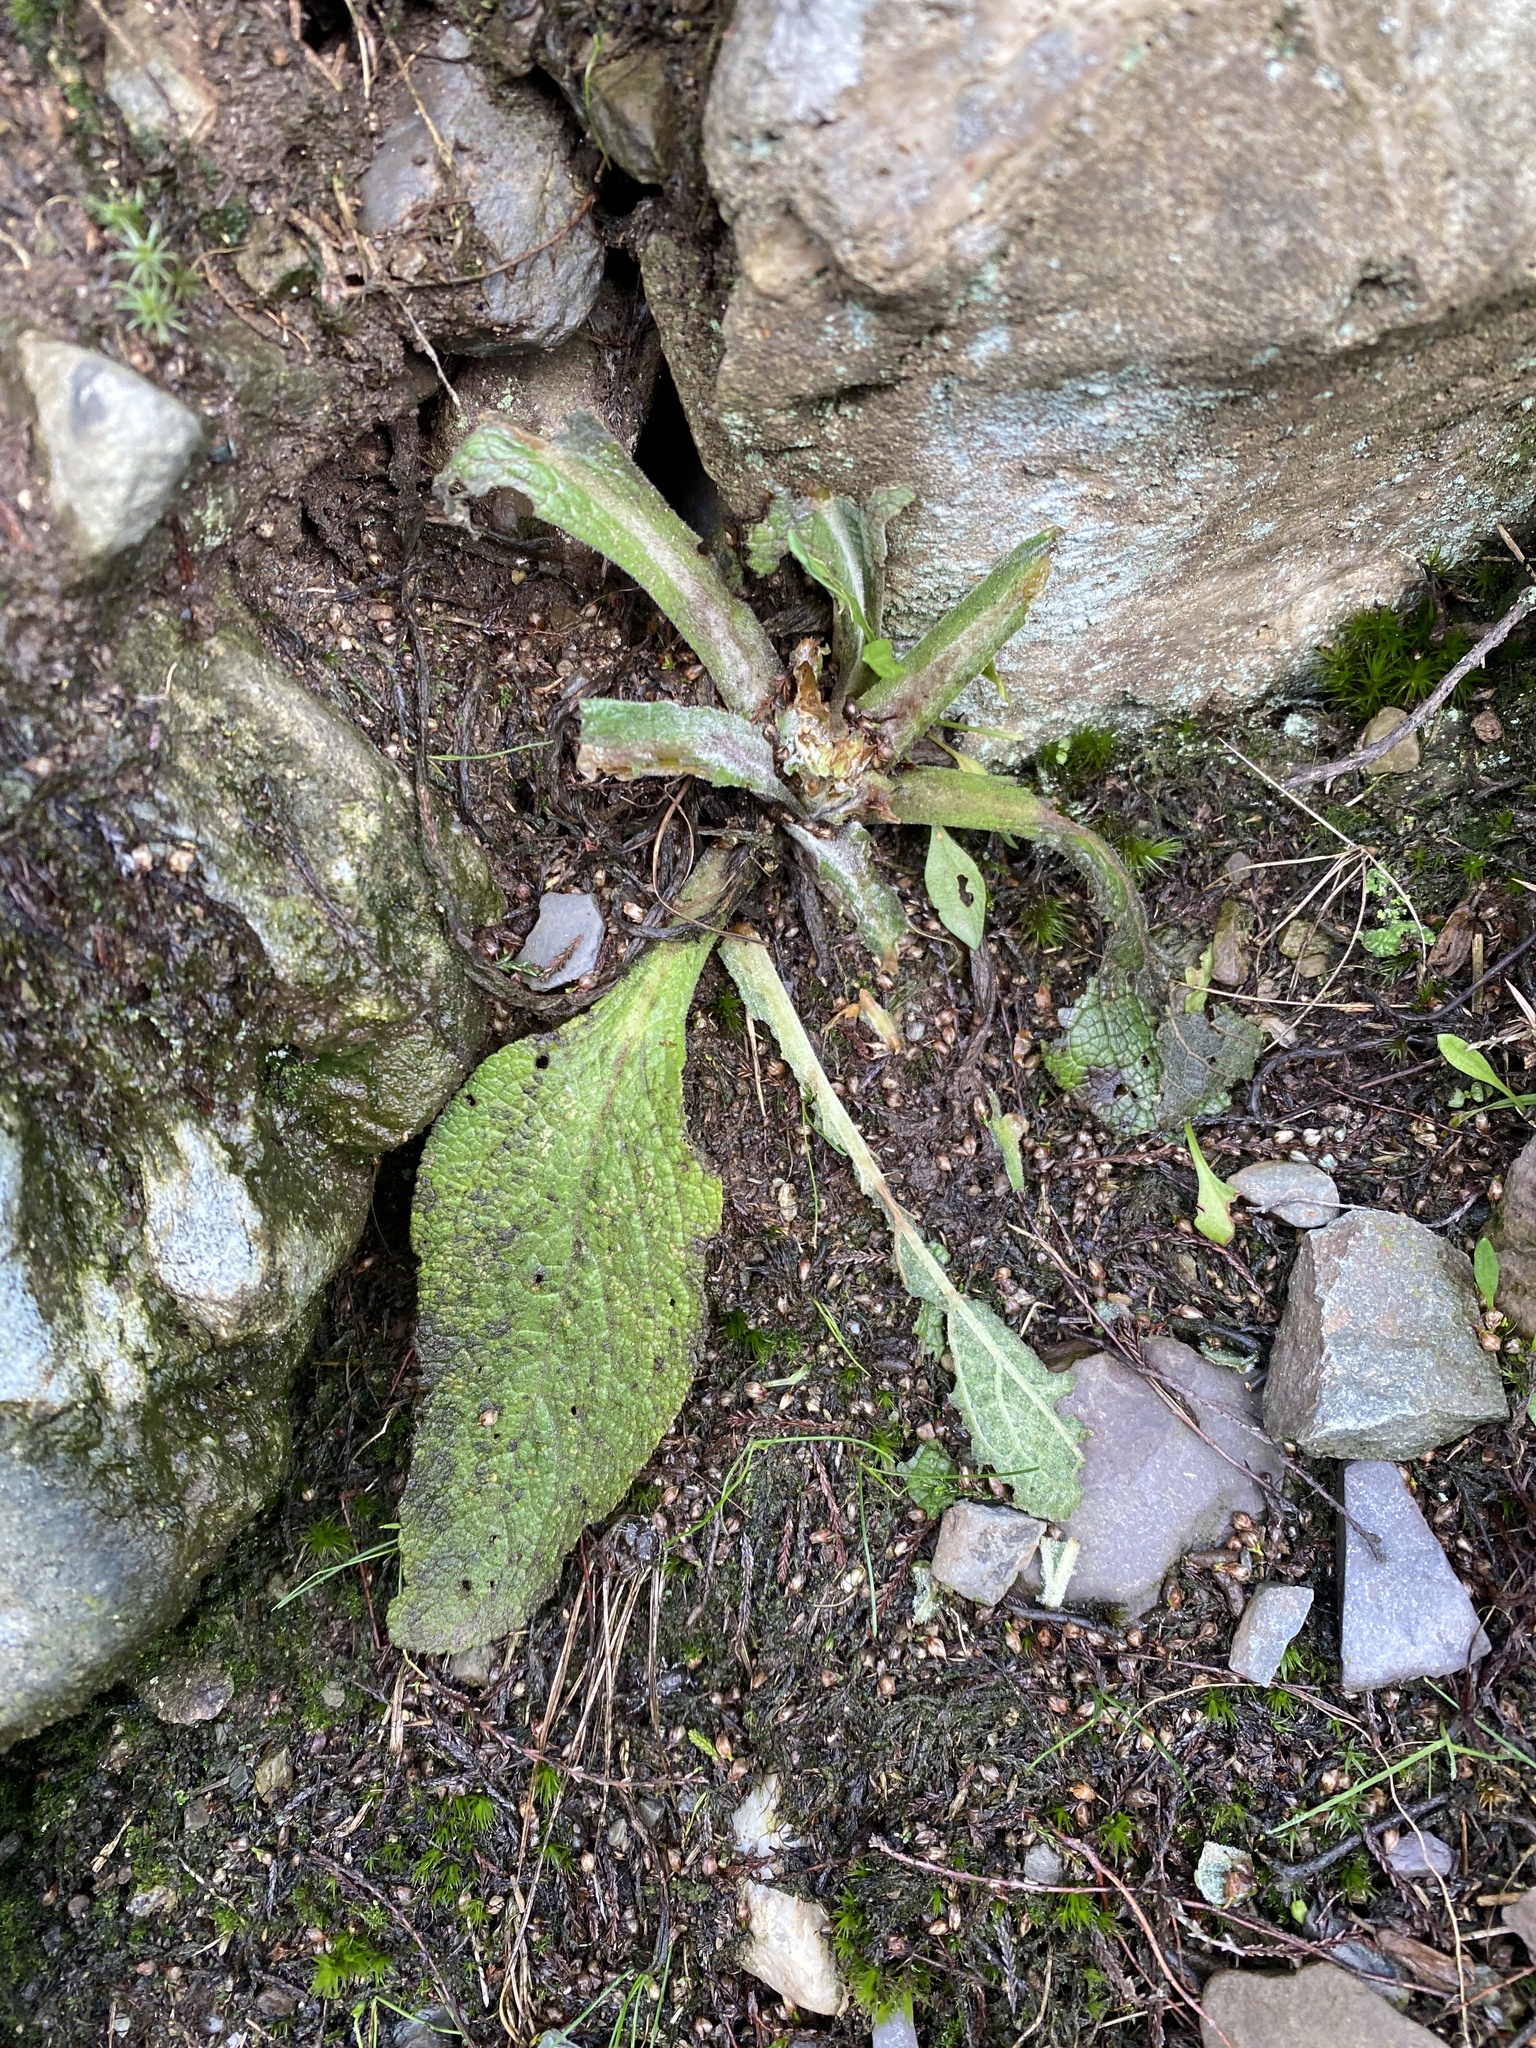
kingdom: Plantae
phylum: Tracheophyta
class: Magnoliopsida
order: Lamiales
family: Plantaginaceae
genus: Digitalis
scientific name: Digitalis purpurea
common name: Foxglove
